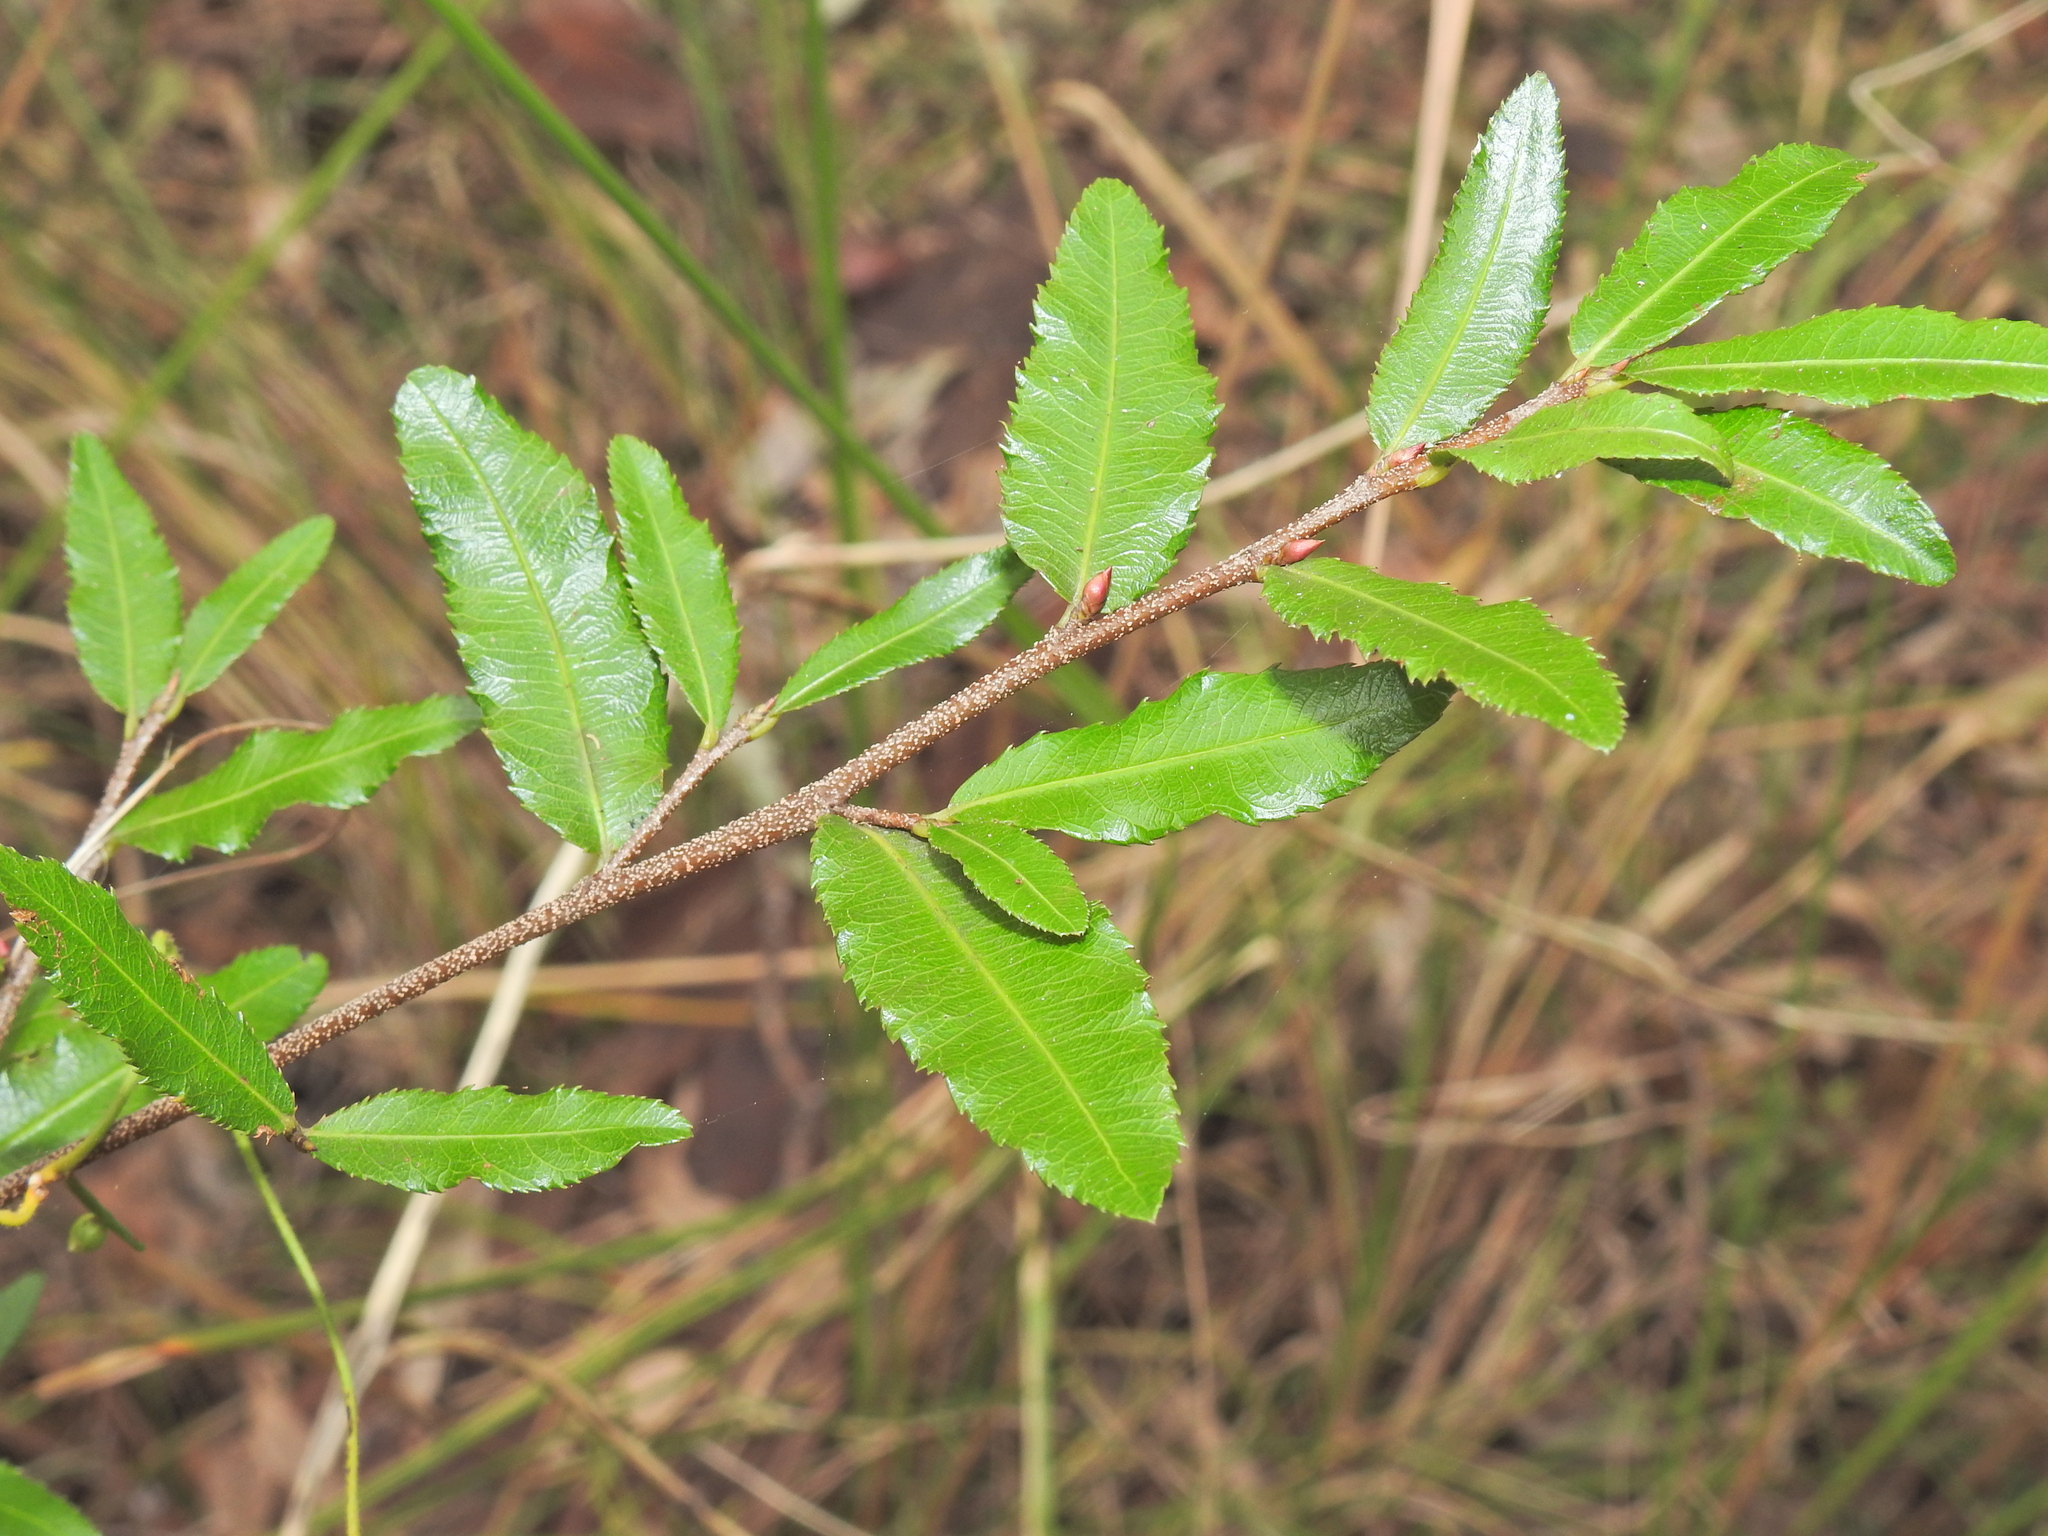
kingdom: Plantae
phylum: Tracheophyta
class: Magnoliopsida
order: Malpighiales
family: Ochnaceae
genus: Ochna
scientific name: Ochna serrulata
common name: Mickey mouse plant
